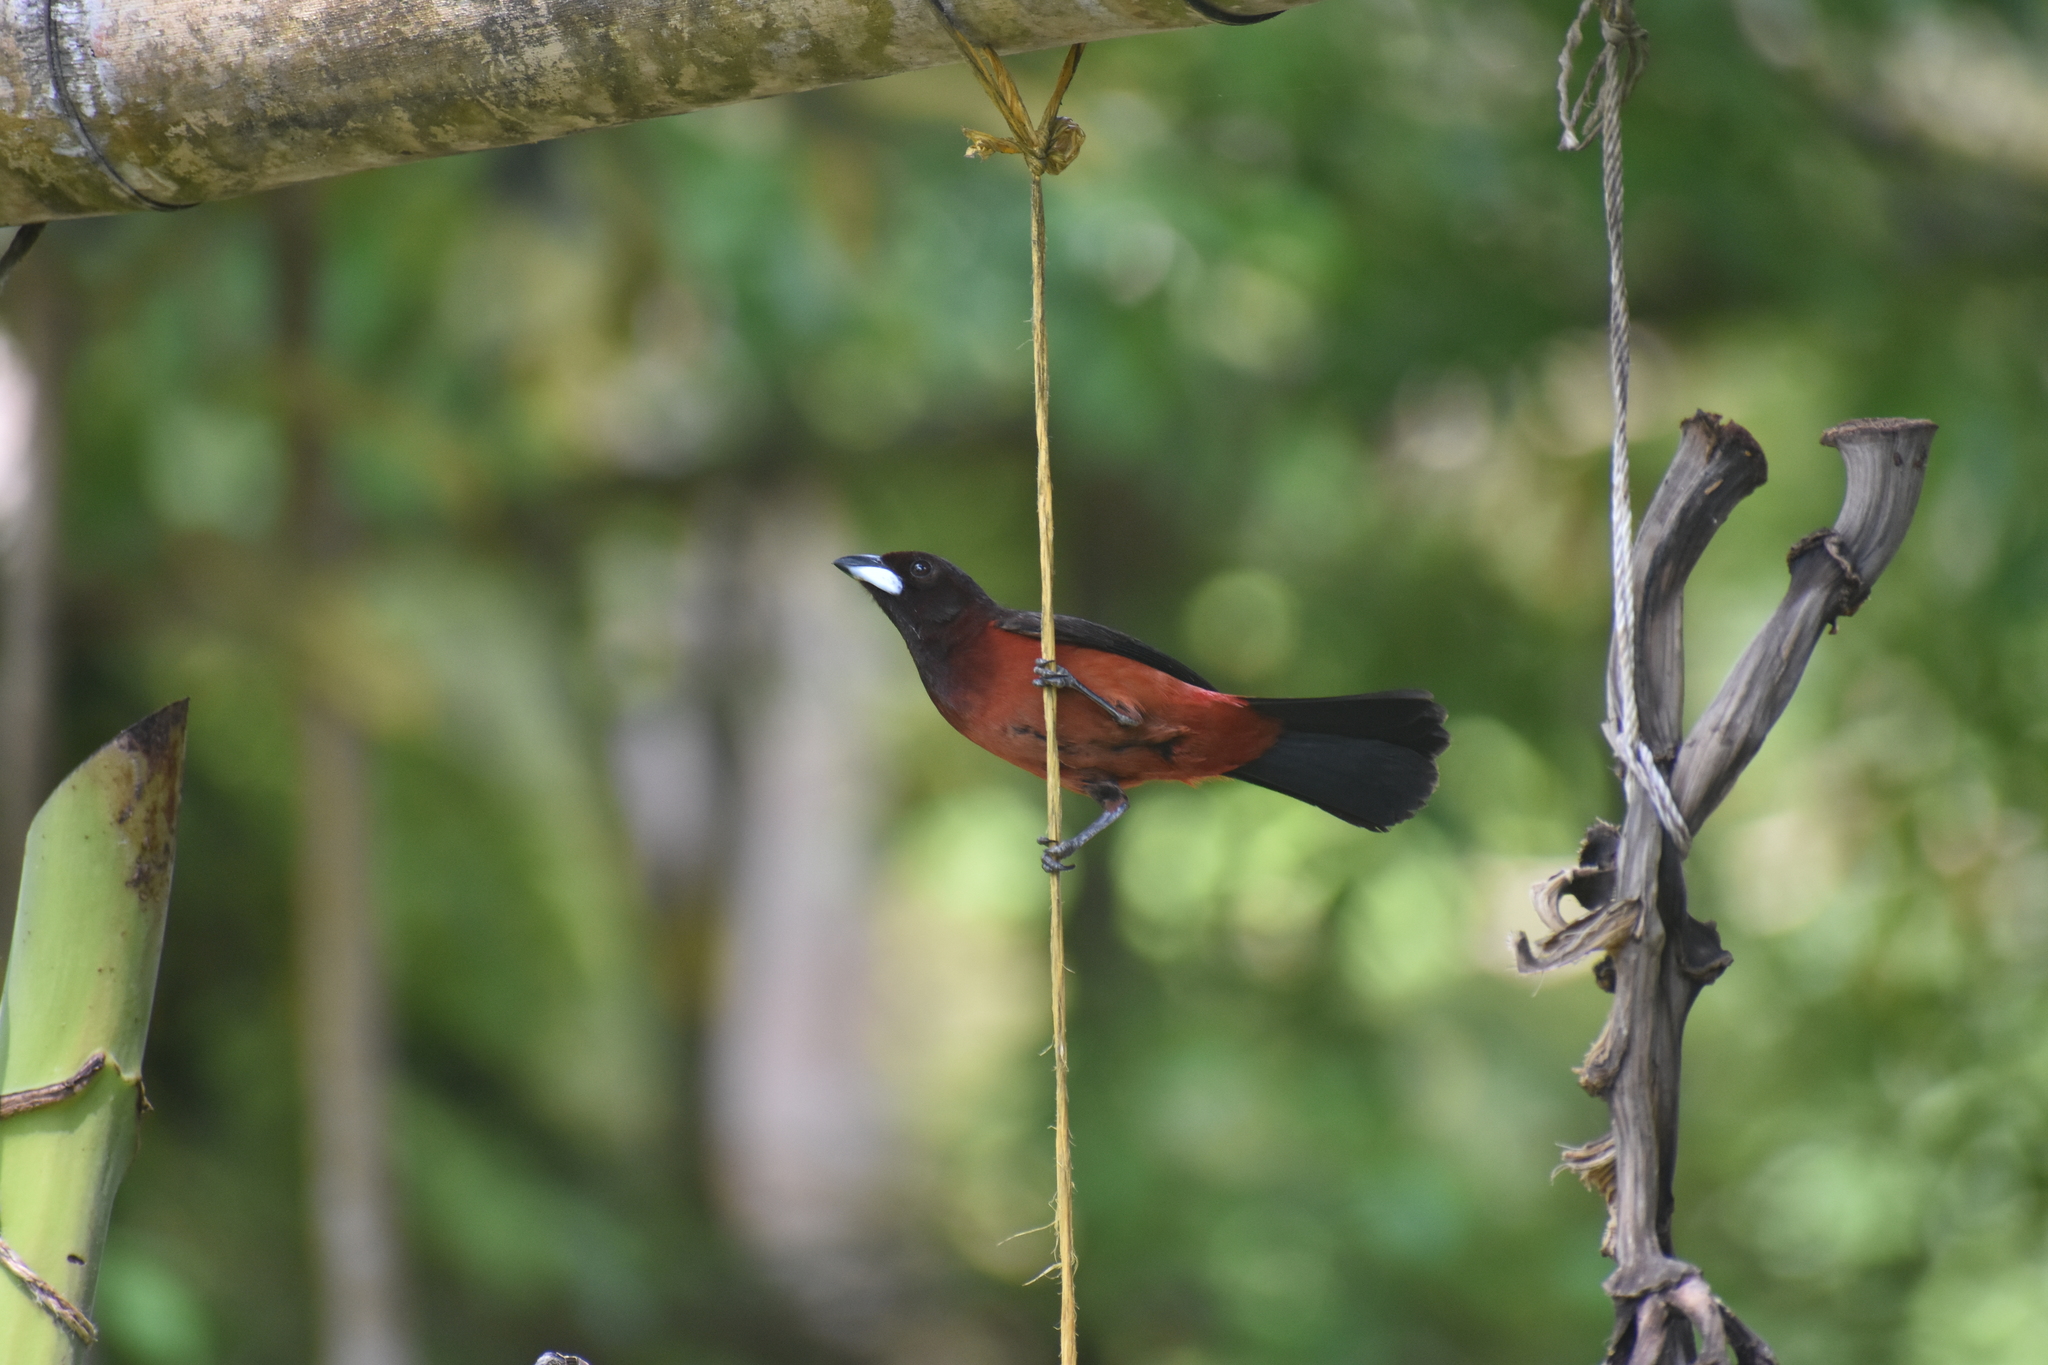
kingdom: Animalia
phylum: Chordata
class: Aves
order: Passeriformes
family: Thraupidae
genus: Ramphocelus
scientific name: Ramphocelus dimidiatus
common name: Crimson-backed tanager
